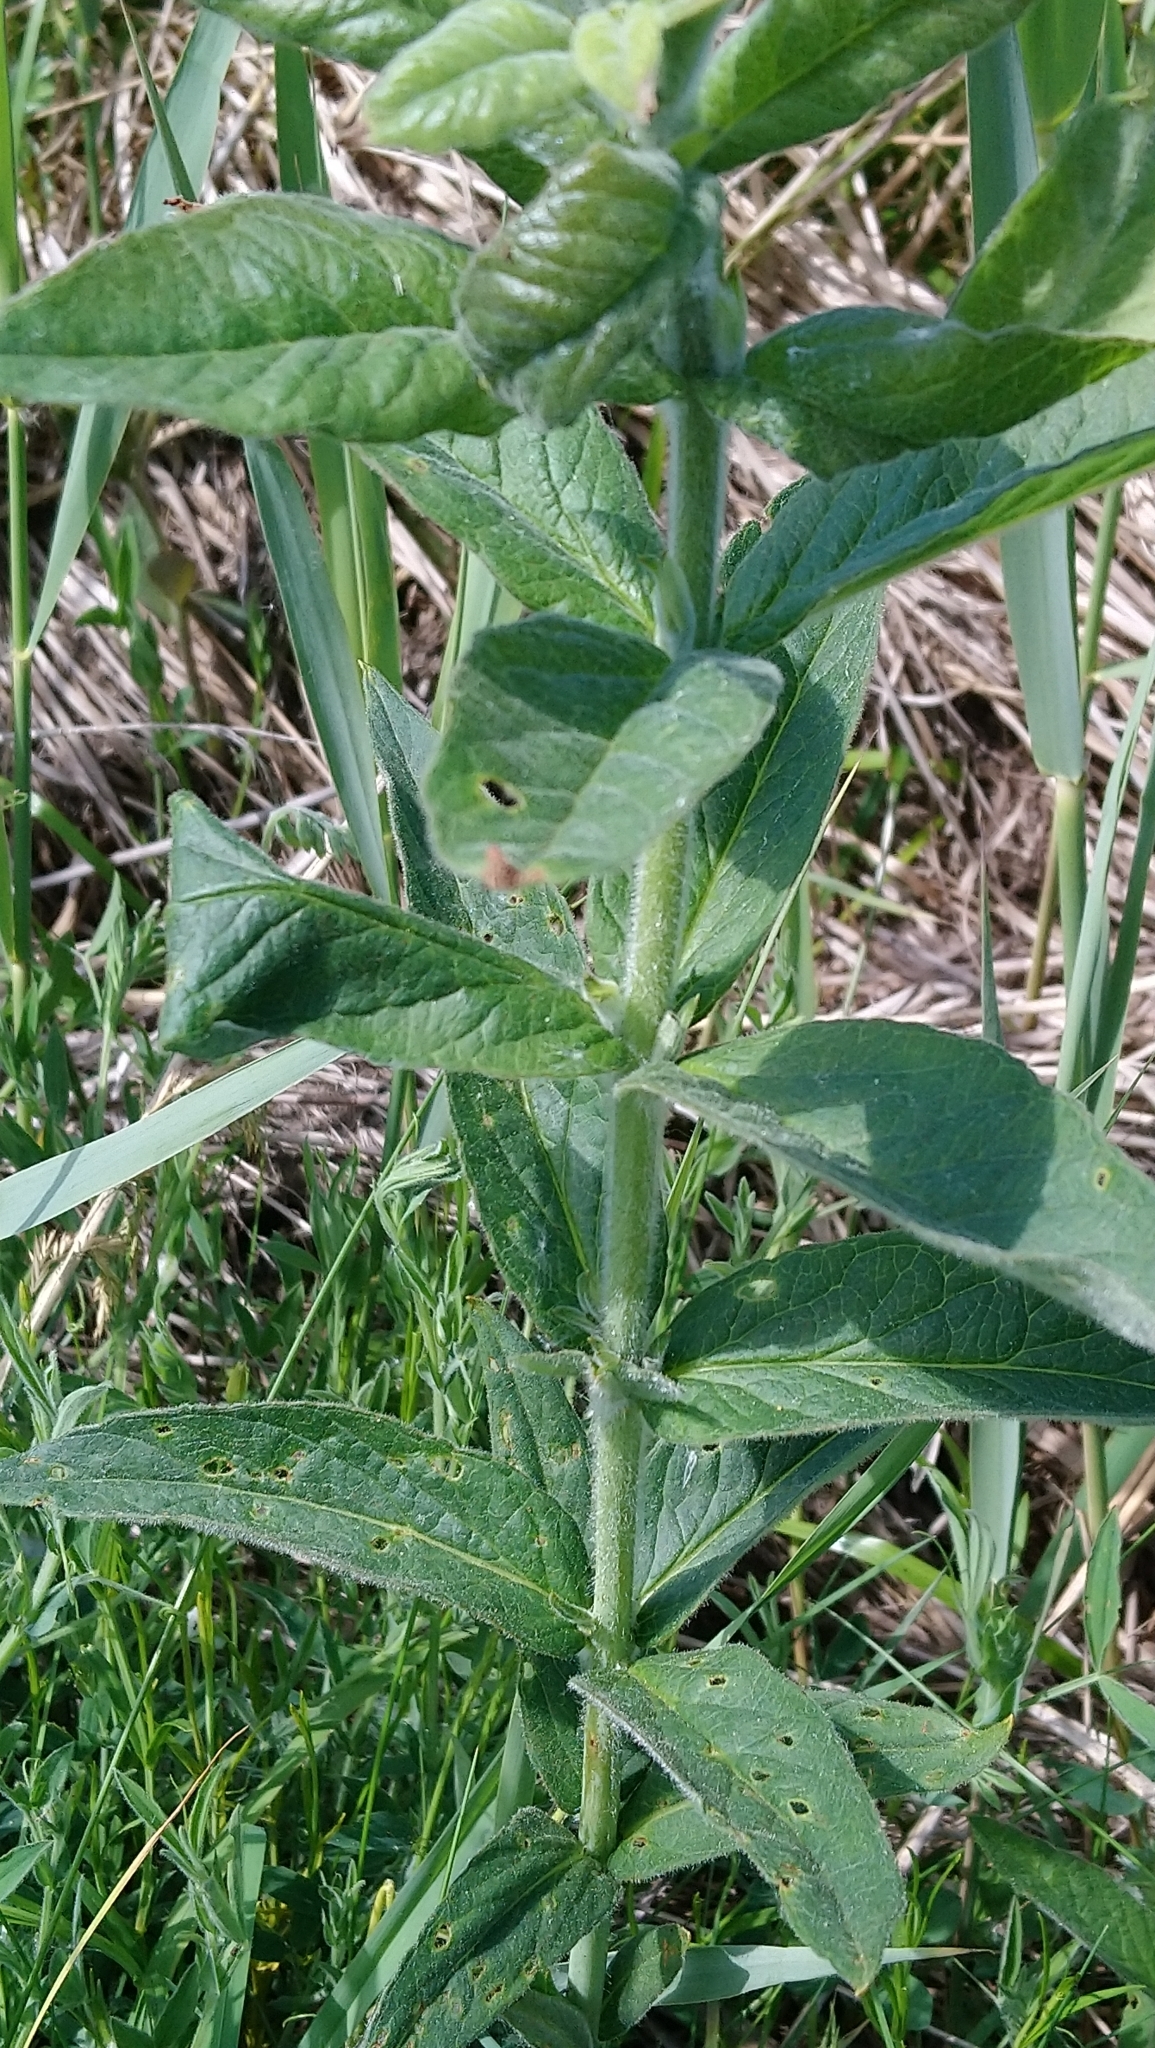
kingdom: Plantae
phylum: Tracheophyta
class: Magnoliopsida
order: Ericales
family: Primulaceae
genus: Lysimachia
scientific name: Lysimachia vulgaris
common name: Yellow loosestrife
